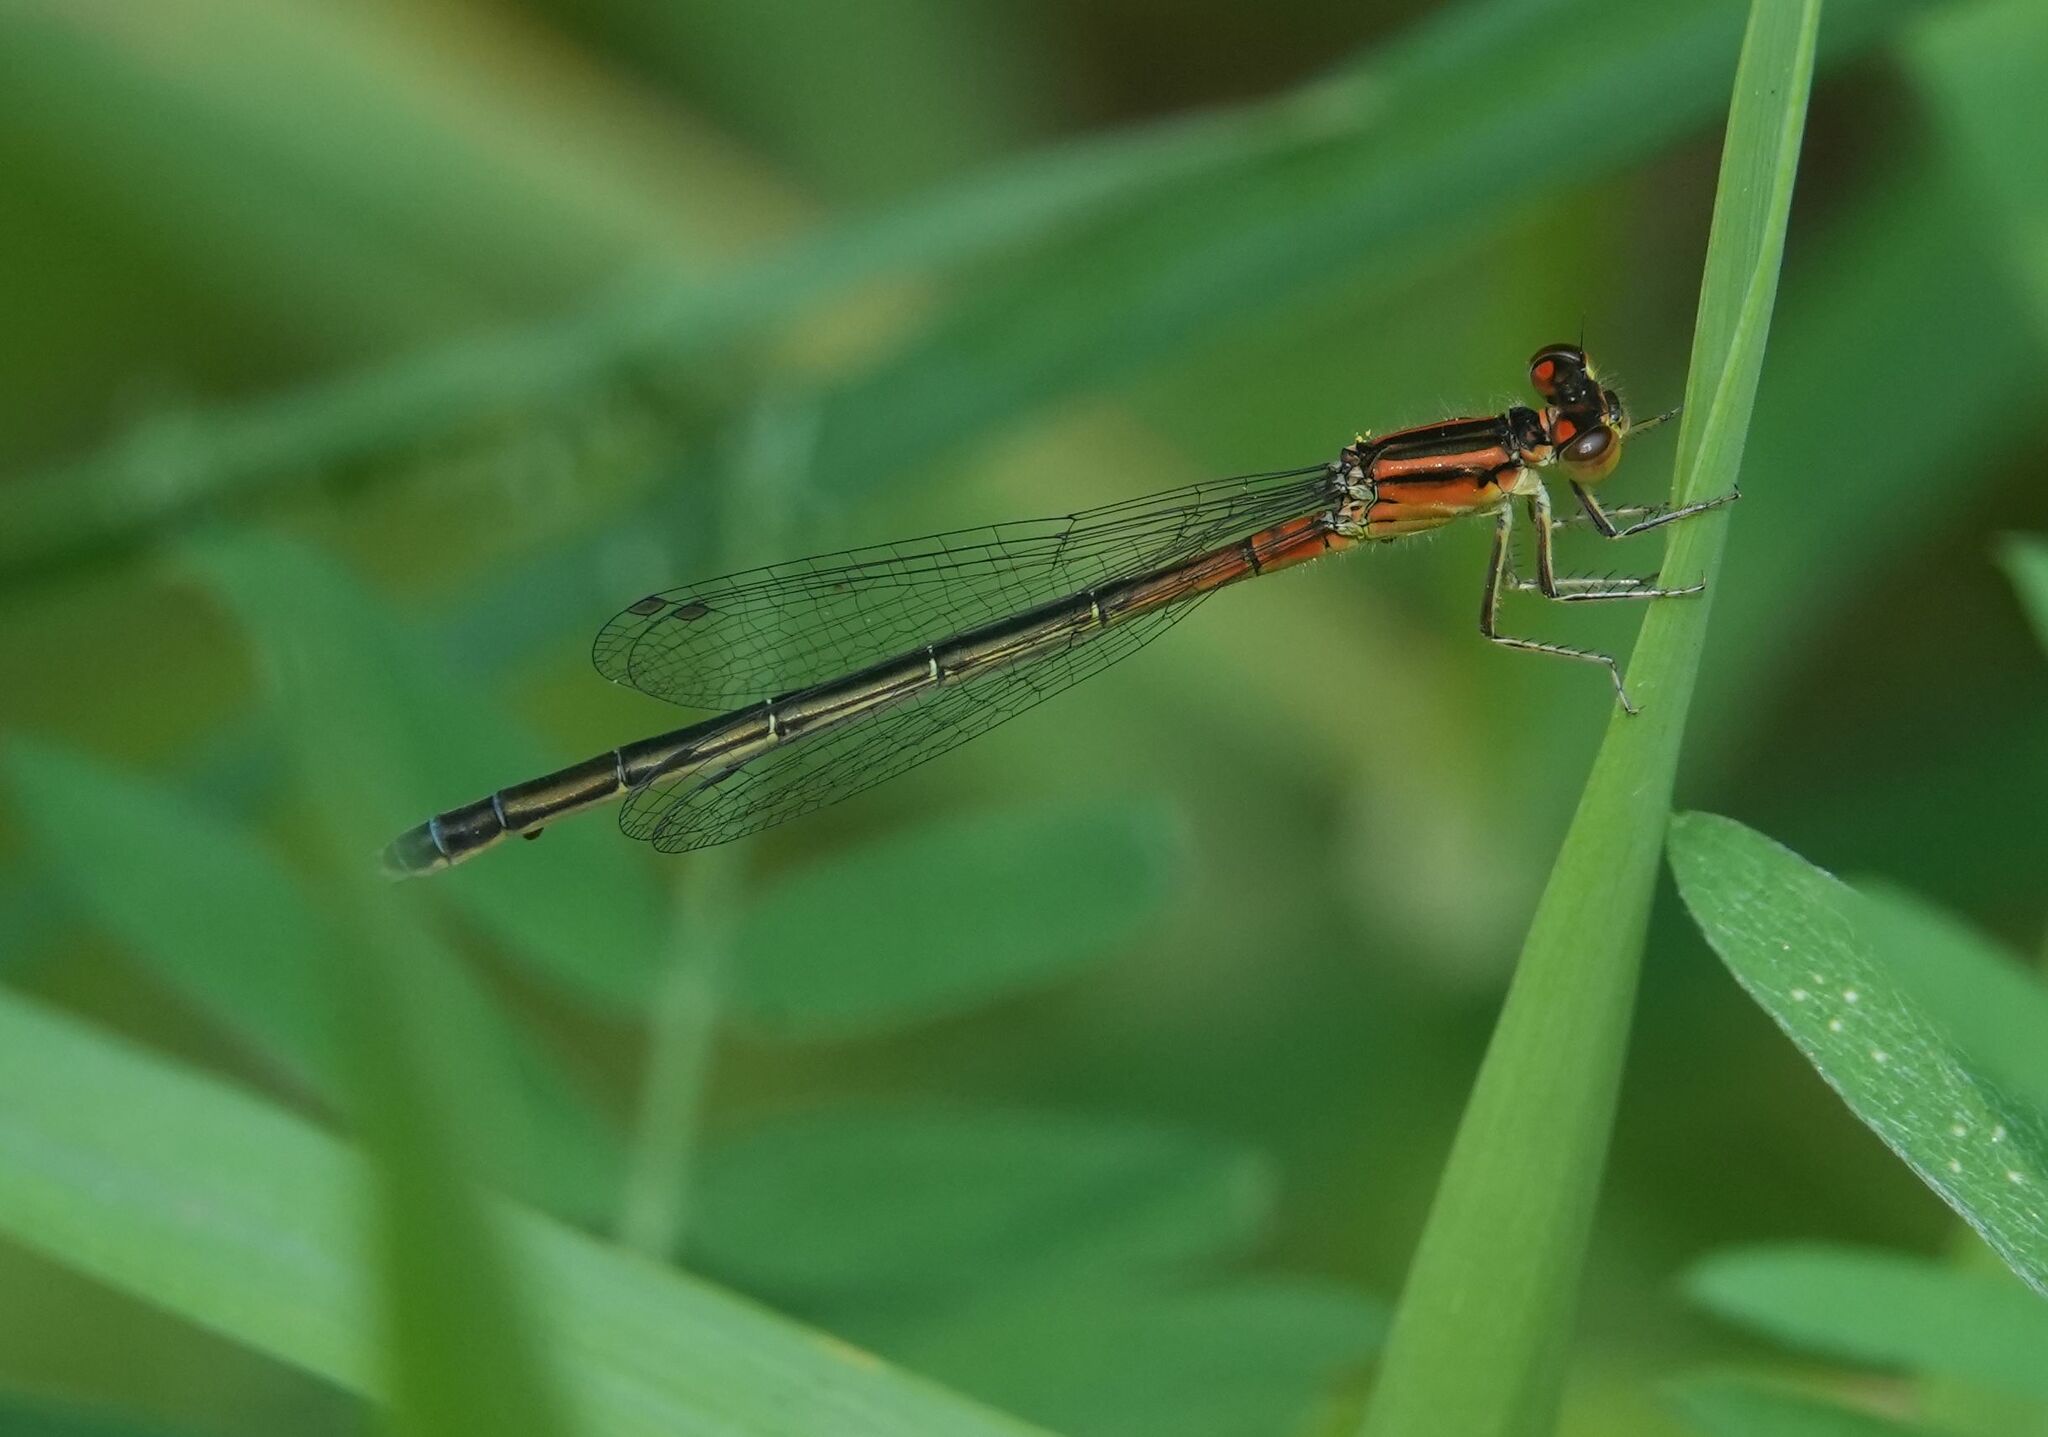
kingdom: Animalia
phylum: Arthropoda
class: Insecta
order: Odonata
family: Coenagrionidae
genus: Ischnura
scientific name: Ischnura verticalis
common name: Eastern forktail
